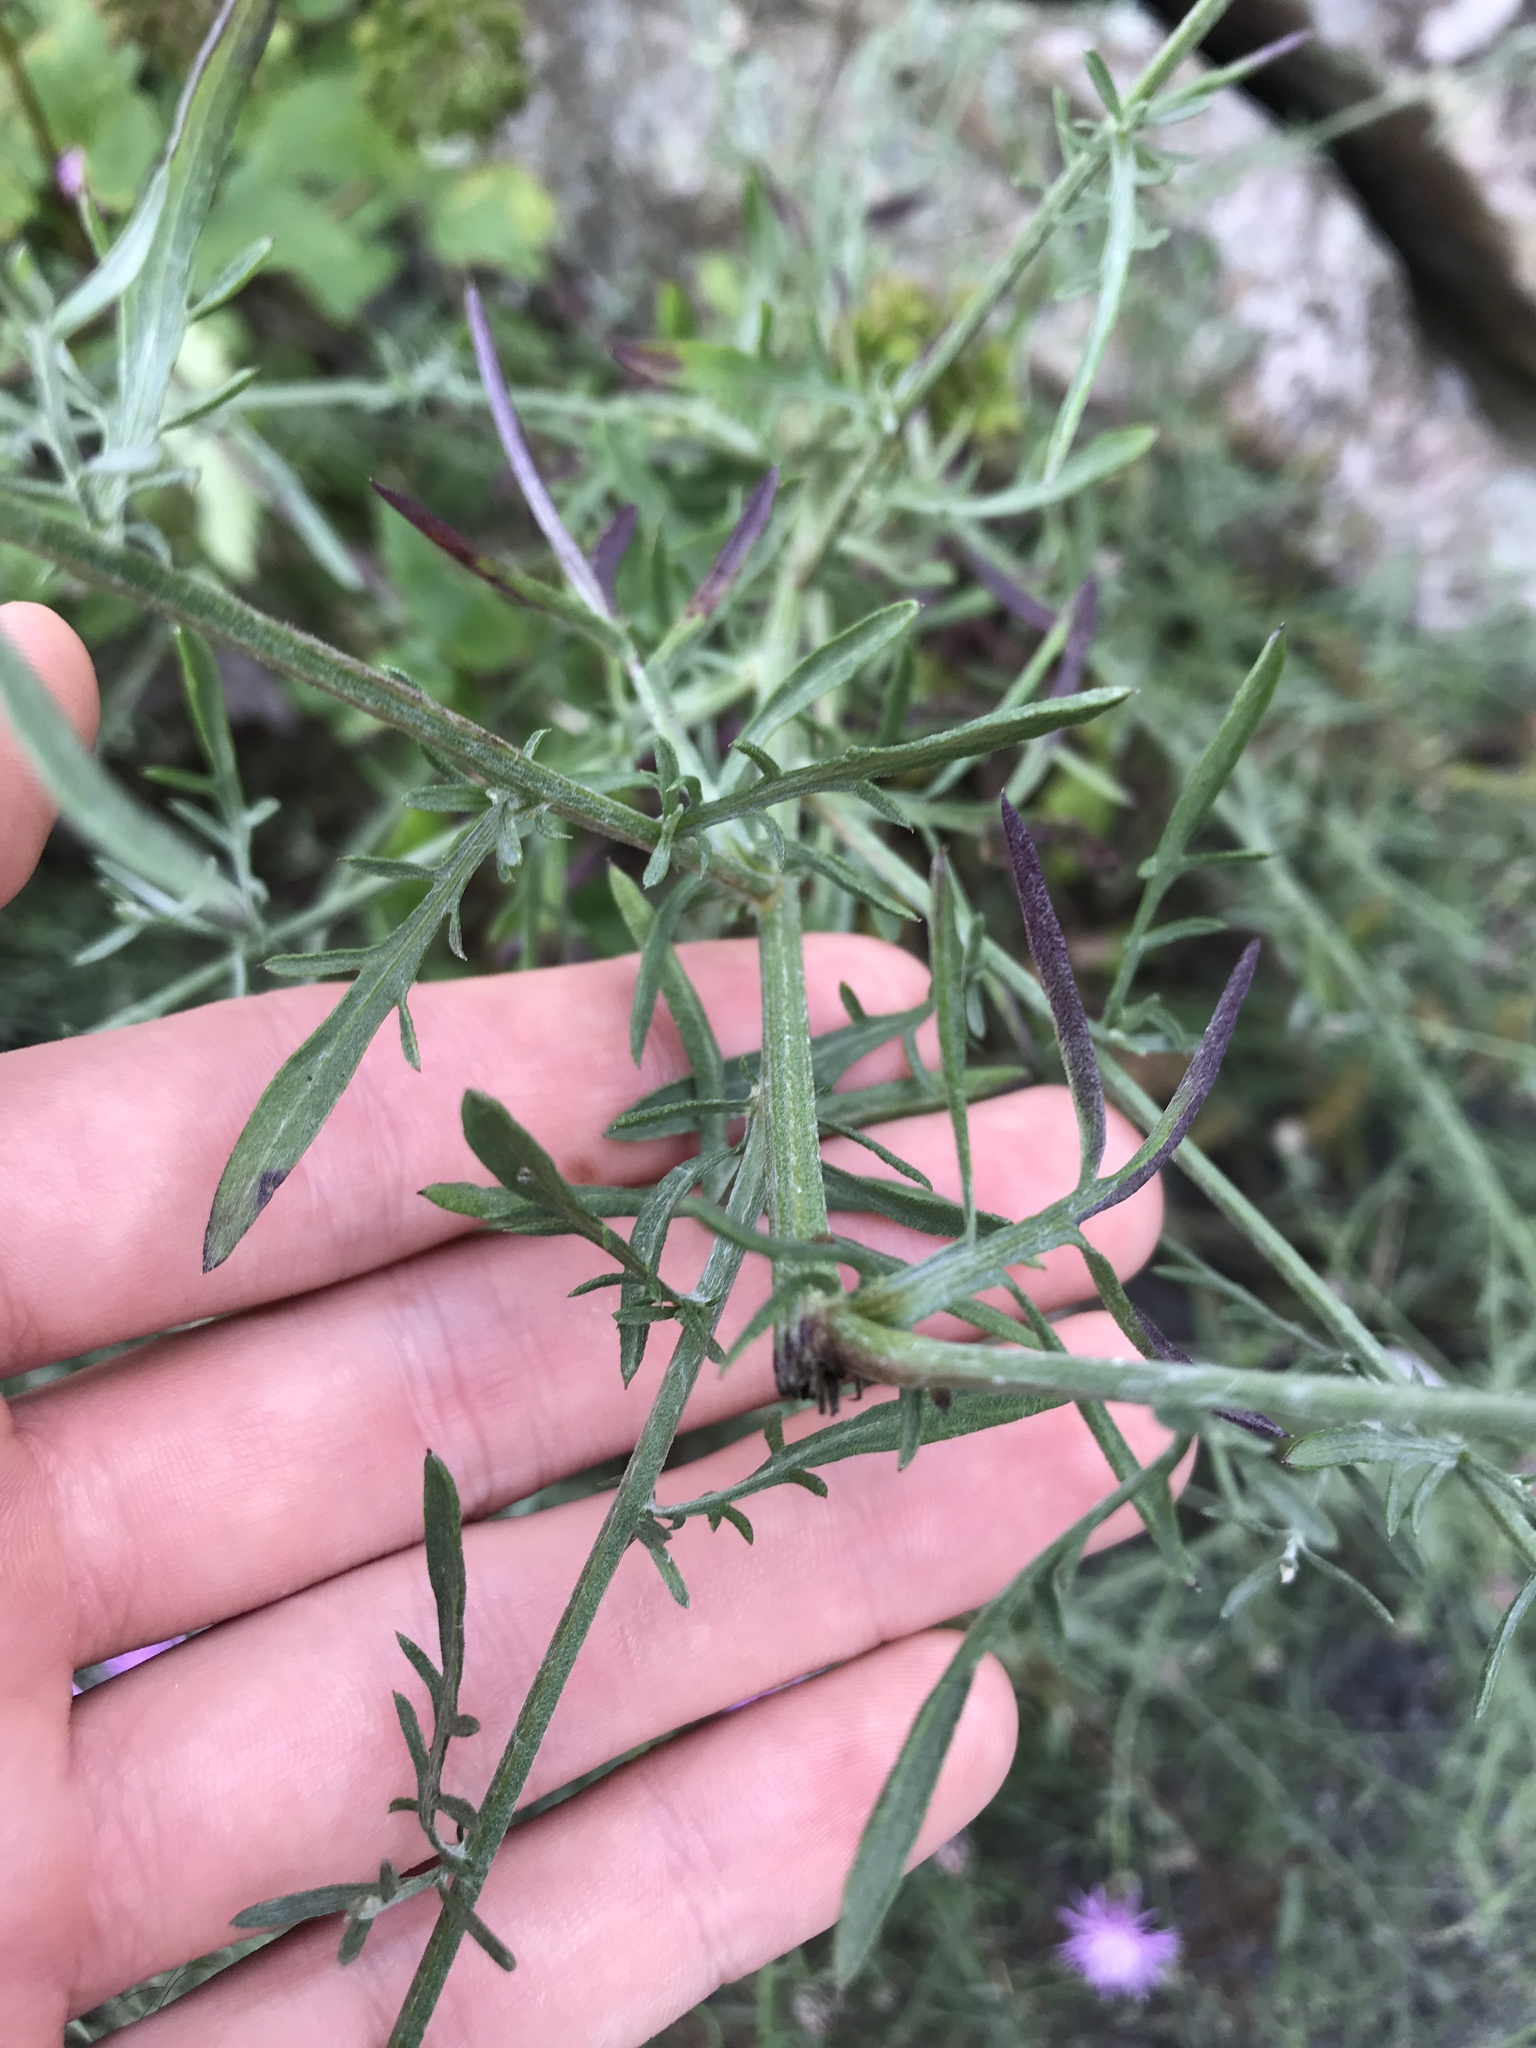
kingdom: Plantae
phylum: Tracheophyta
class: Magnoliopsida
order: Asterales
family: Asteraceae
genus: Centaurea
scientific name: Centaurea stoebe
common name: Spotted knapweed
